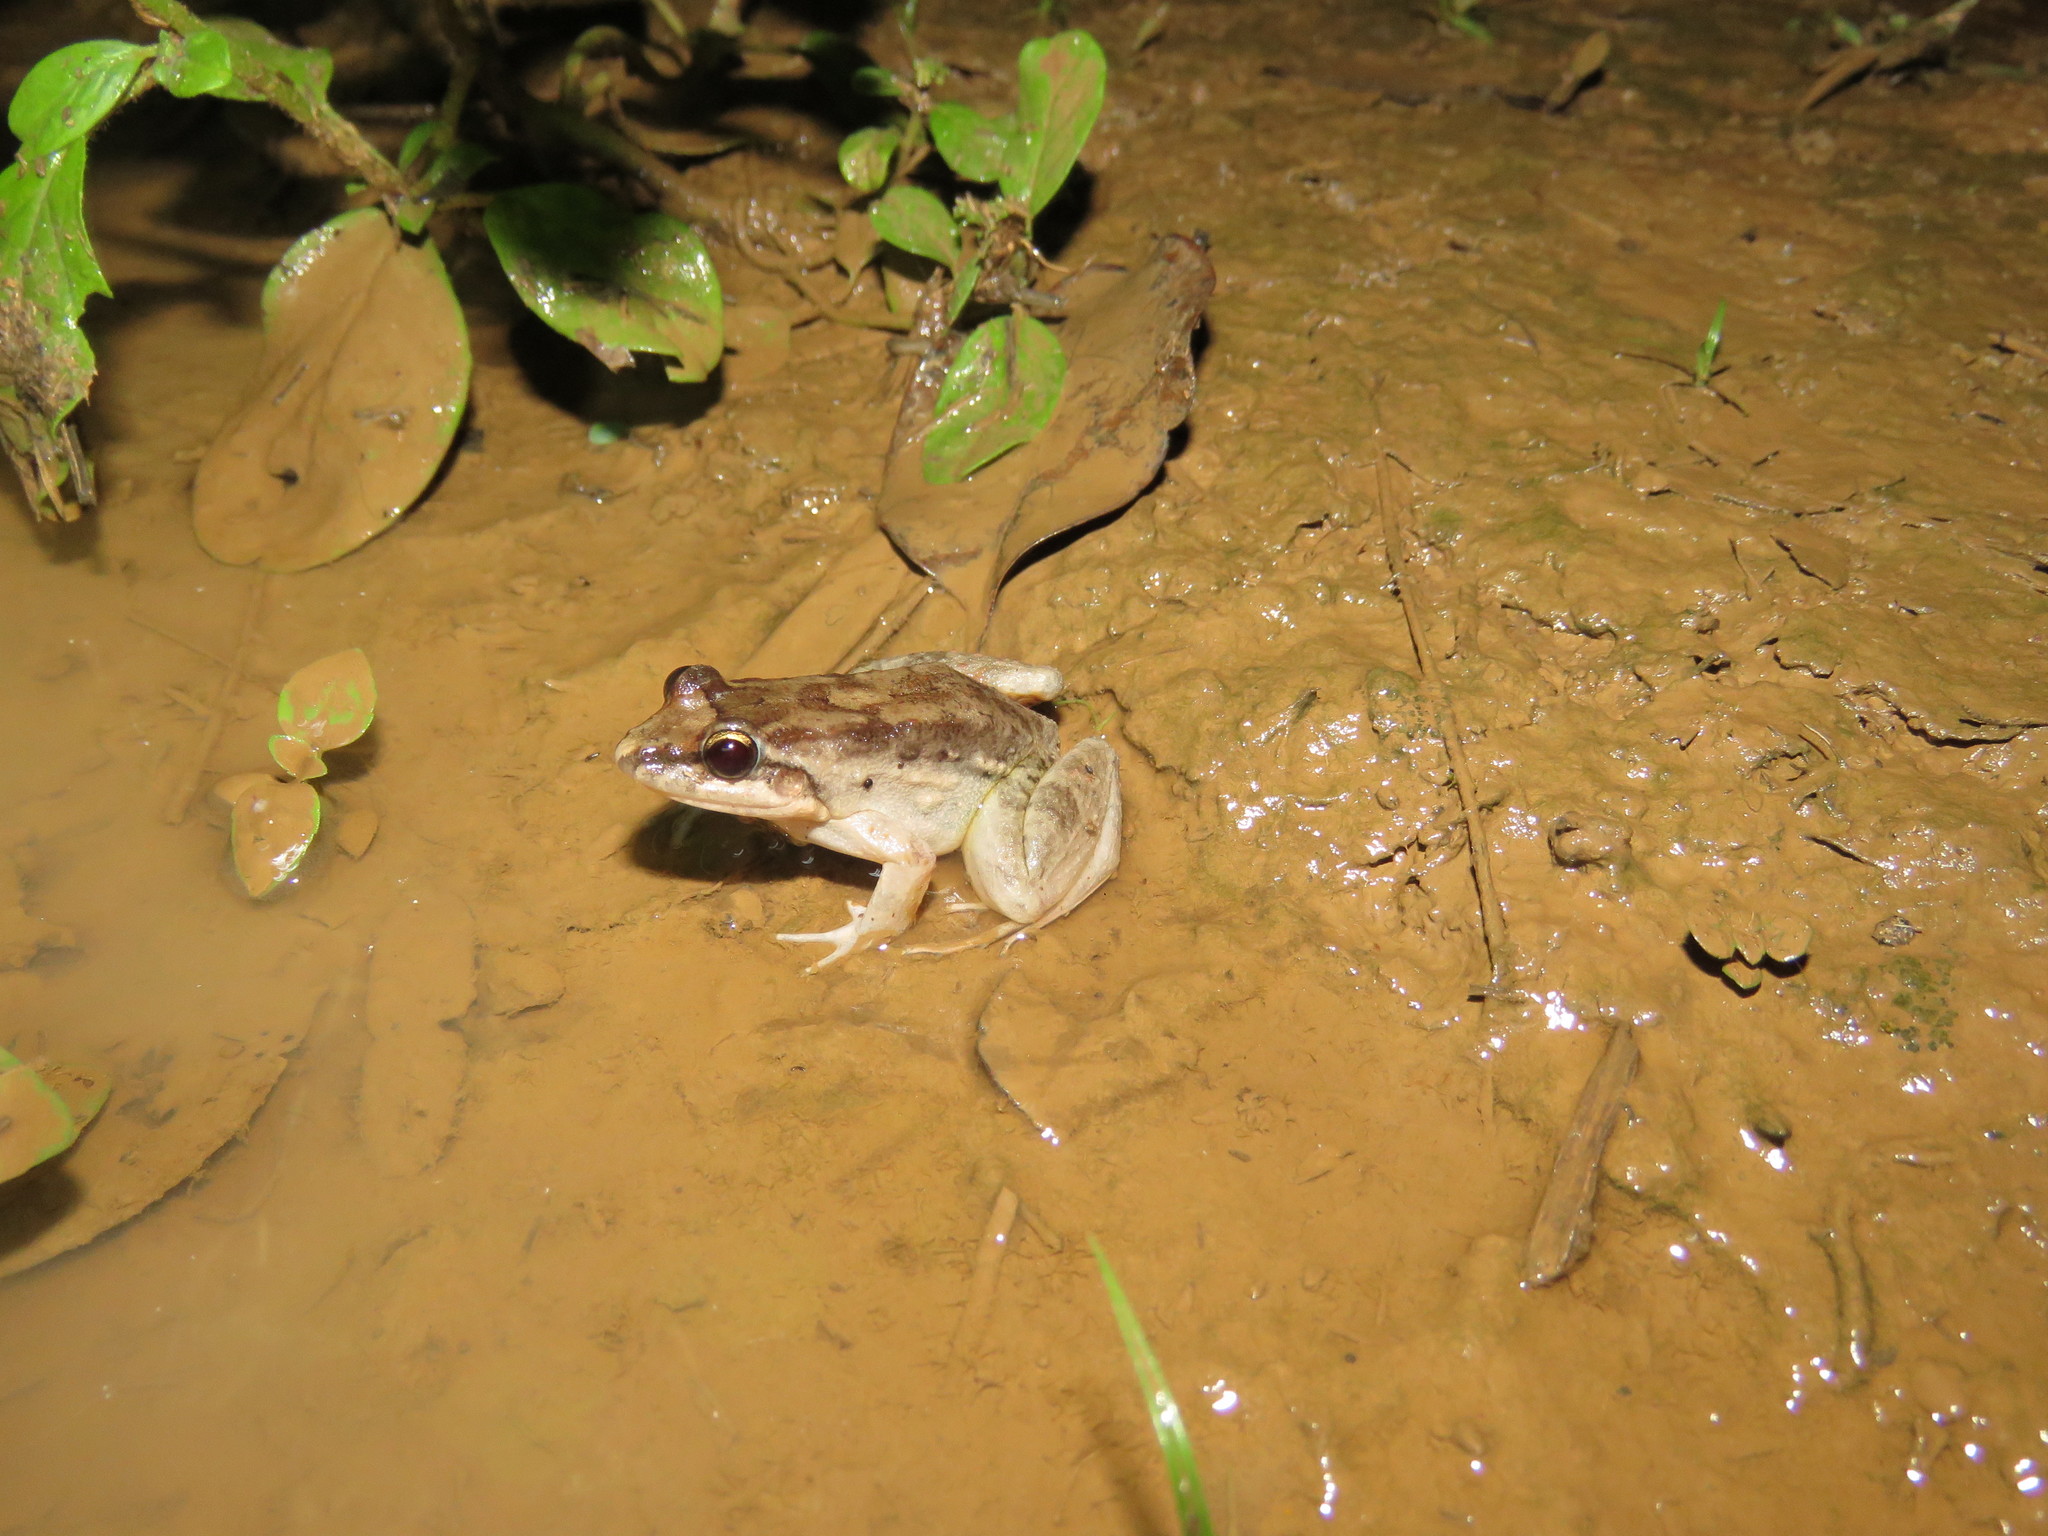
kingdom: Animalia
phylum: Chordata
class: Amphibia
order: Anura
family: Leptodactylidae
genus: Leptodactylus
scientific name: Leptodactylus leptodactyloides
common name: Common thin-toed frog
